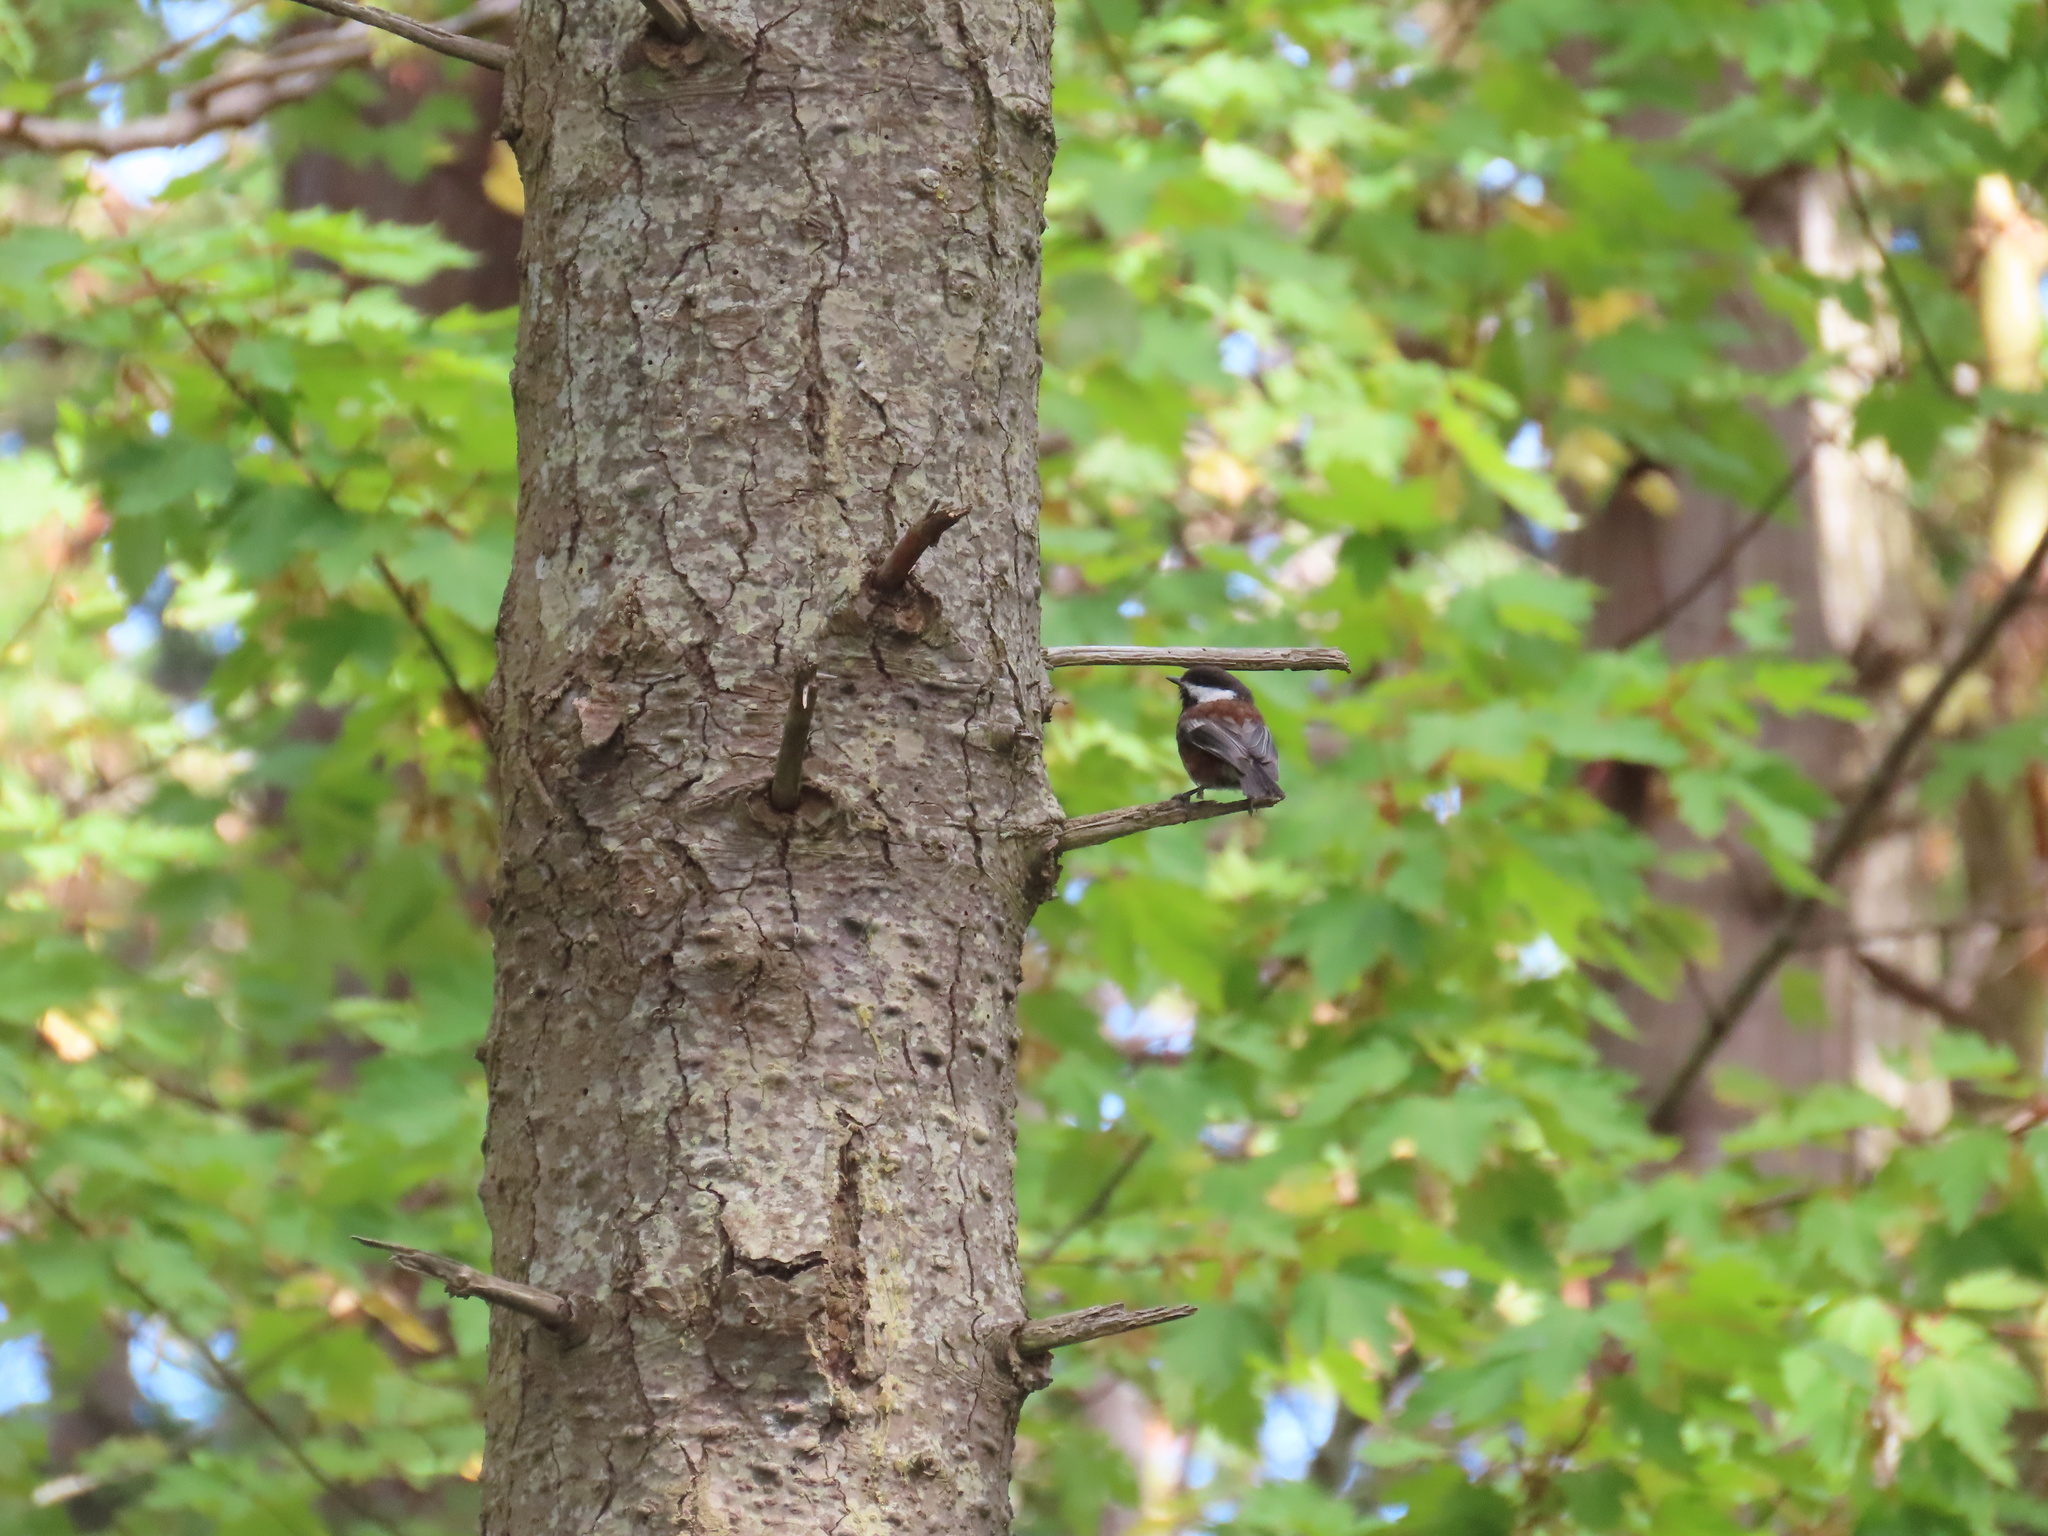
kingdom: Animalia
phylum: Chordata
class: Aves
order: Passeriformes
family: Paridae
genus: Poecile
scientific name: Poecile rufescens
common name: Chestnut-backed chickadee
